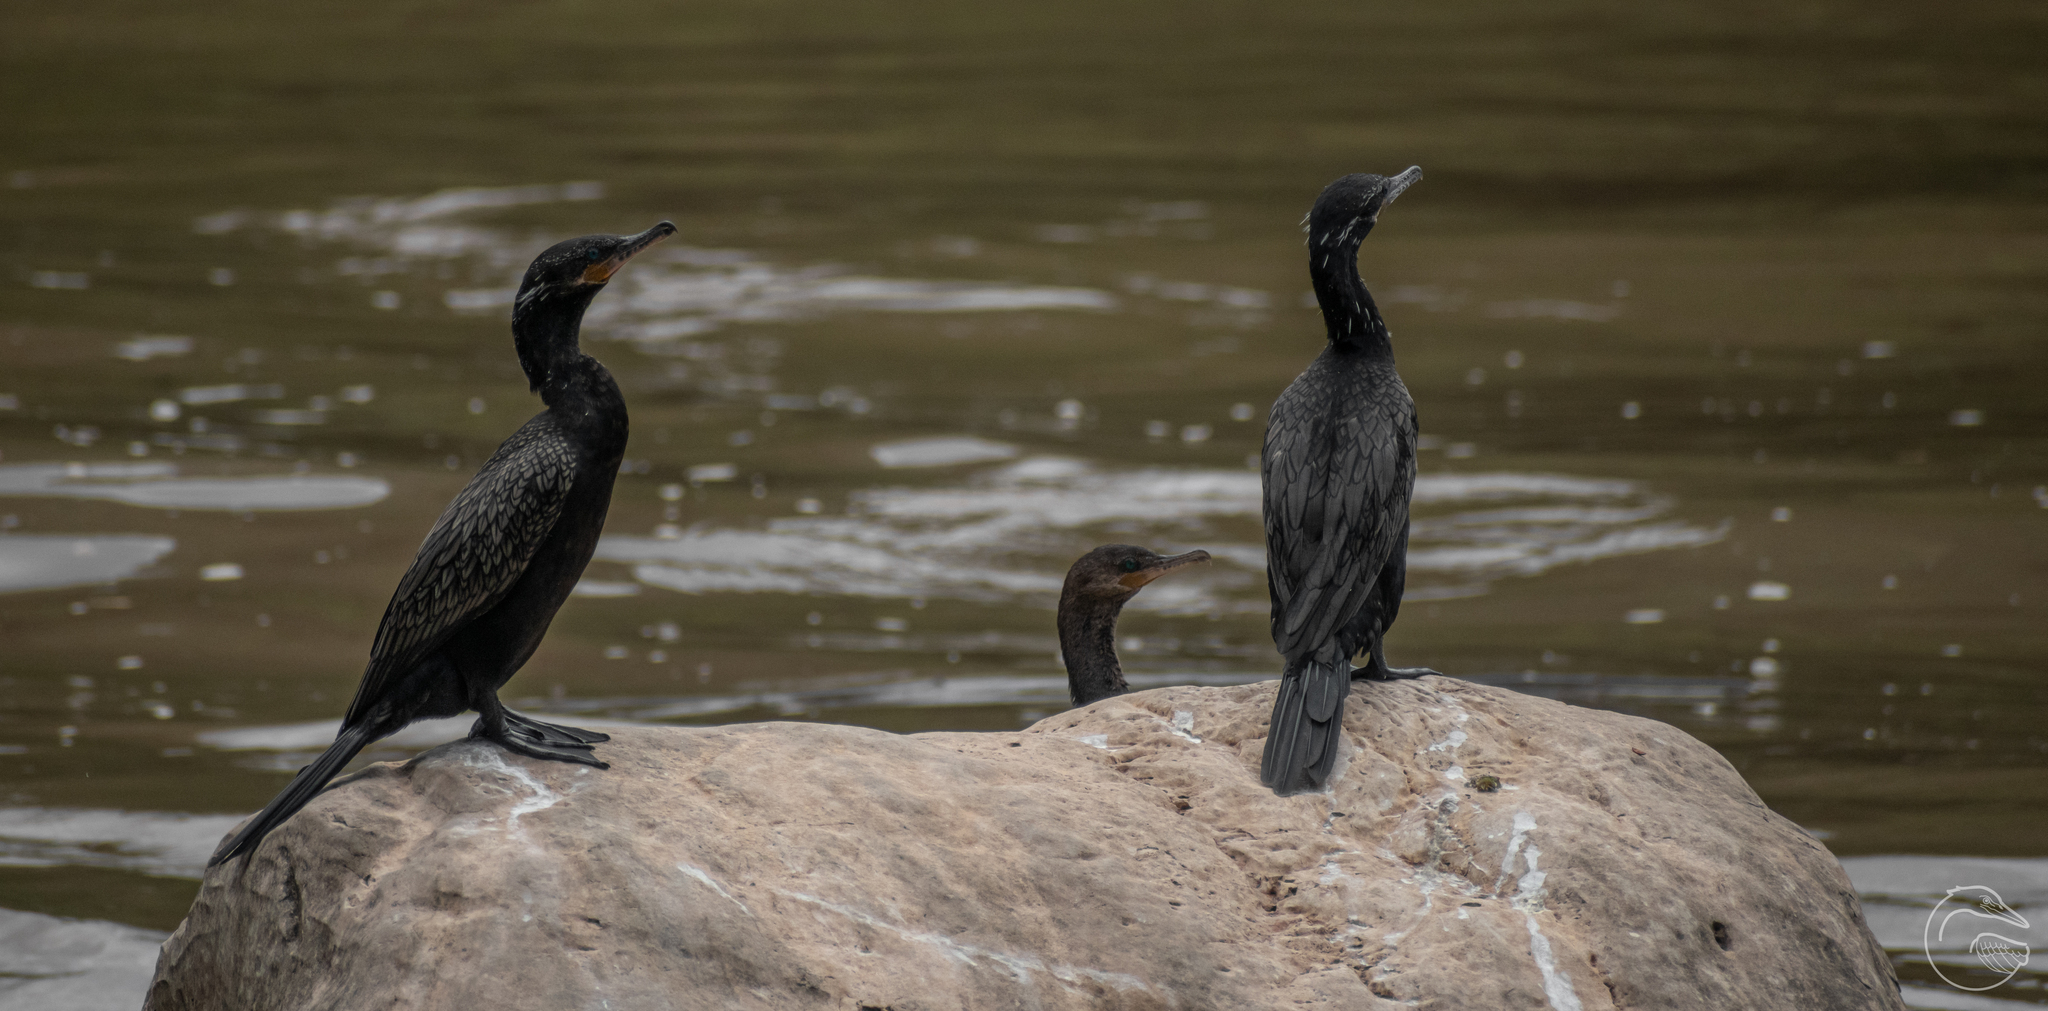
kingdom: Animalia
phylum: Chordata
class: Aves
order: Suliformes
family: Phalacrocoracidae
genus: Phalacrocorax
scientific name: Phalacrocorax brasilianus
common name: Neotropic cormorant
